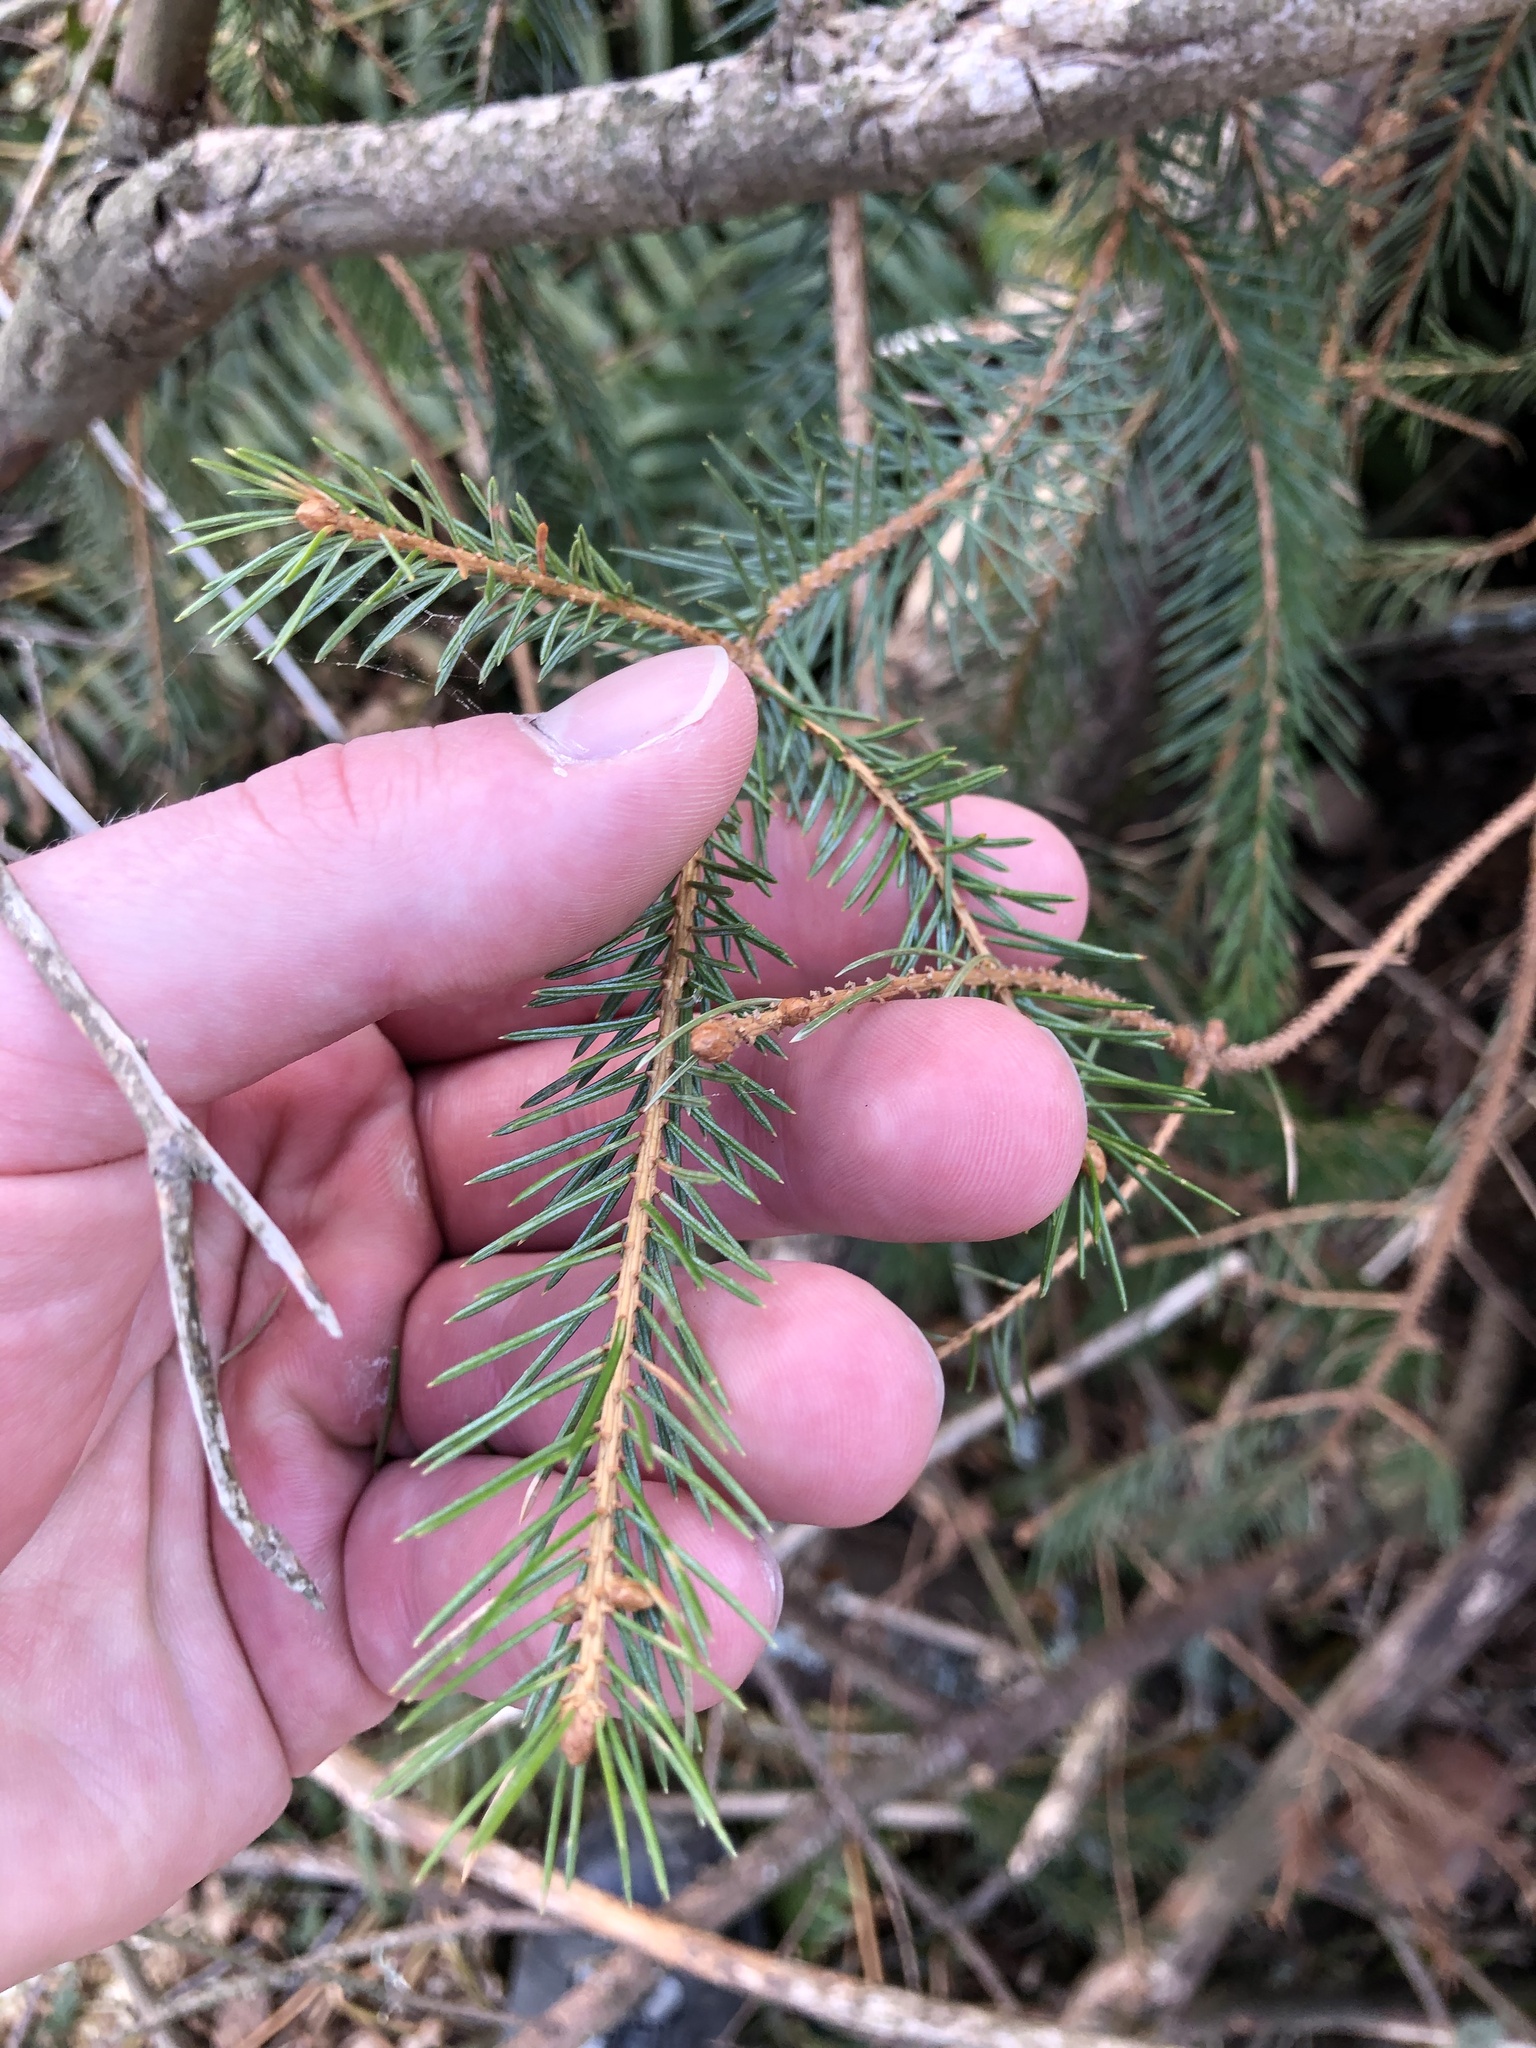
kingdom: Plantae
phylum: Tracheophyta
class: Pinopsida
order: Pinales
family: Pinaceae
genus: Picea
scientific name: Picea sitchensis
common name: Sitka spruce
